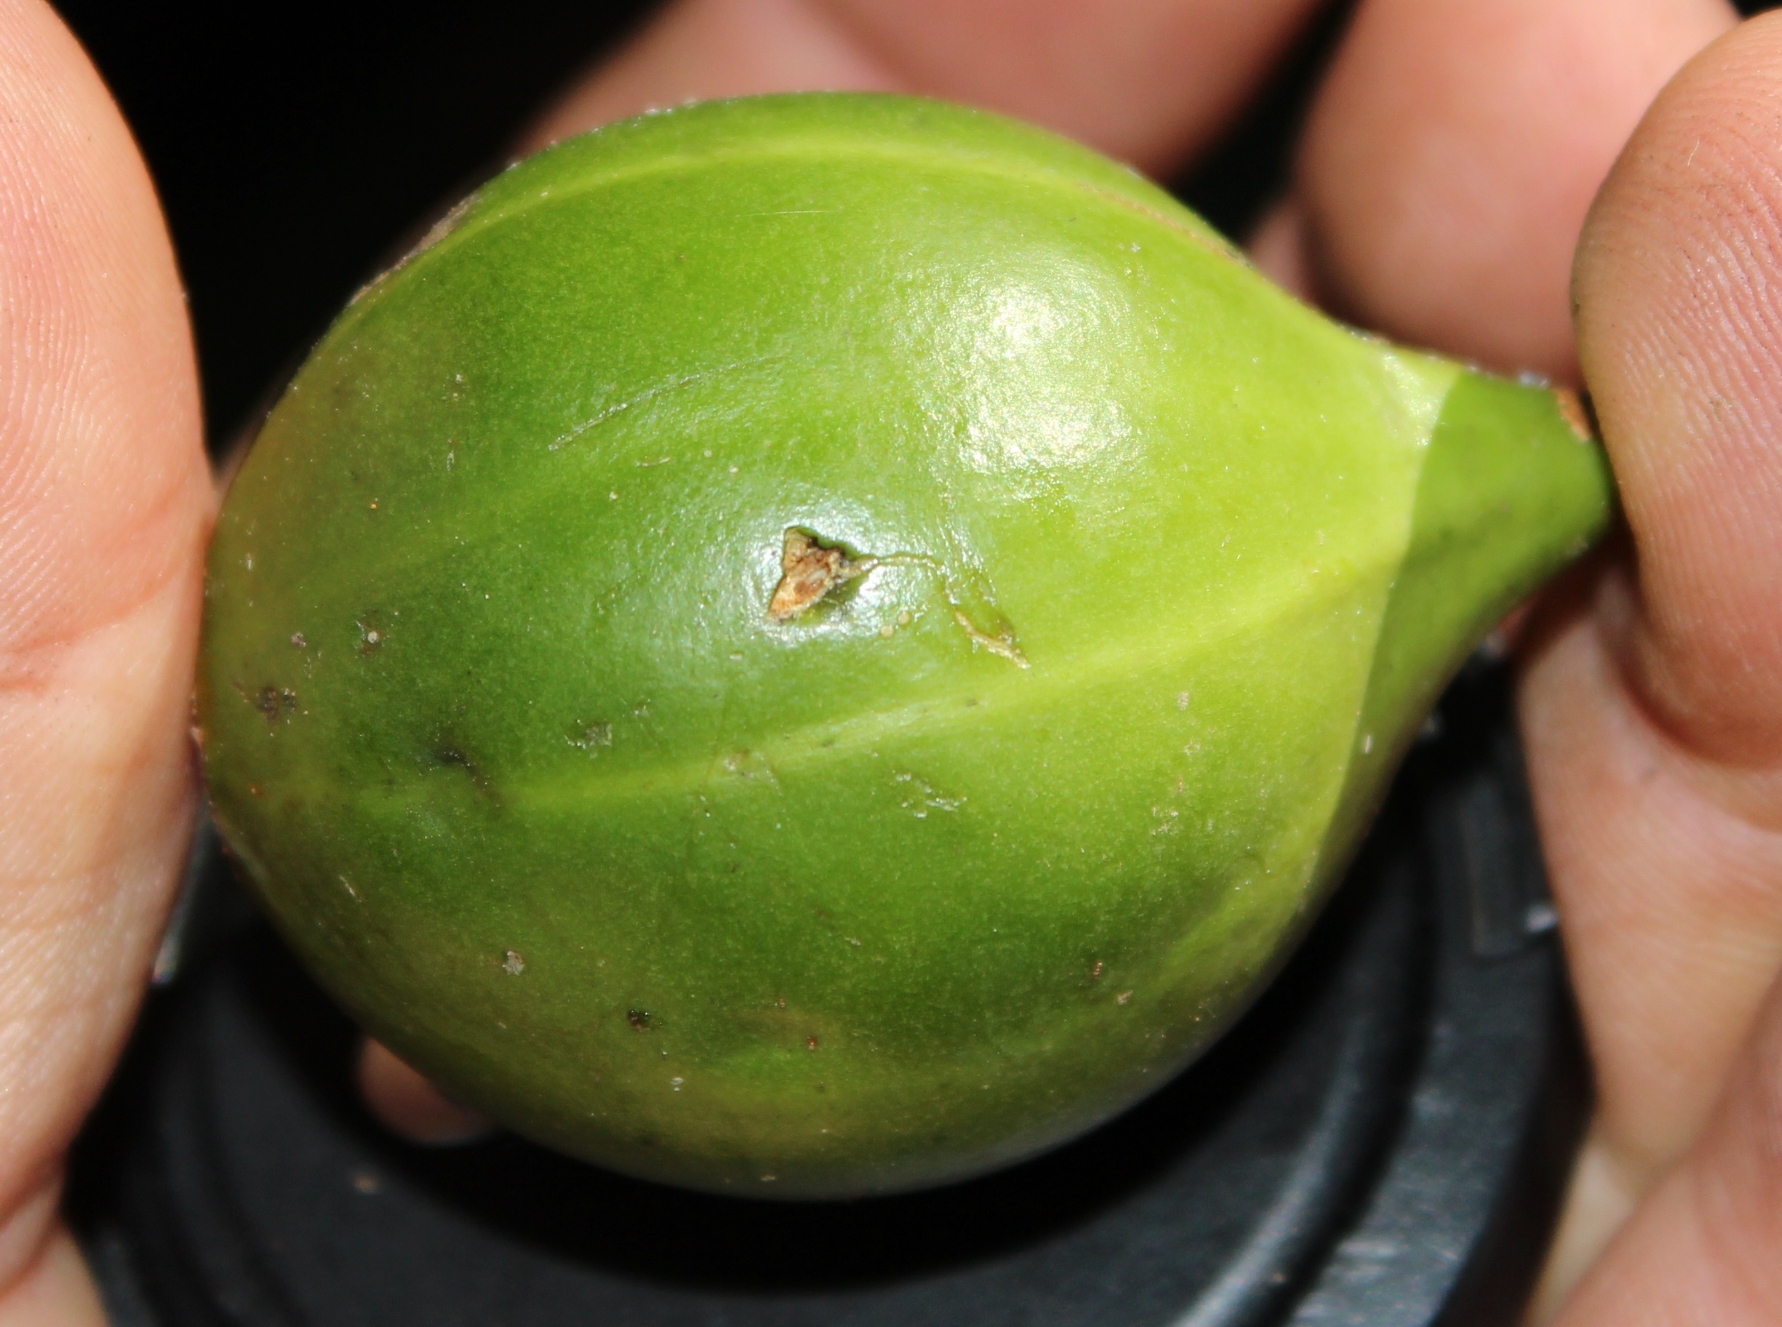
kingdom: Plantae
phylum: Tracheophyta
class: Magnoliopsida
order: Gentianales
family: Rubiaceae
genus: Rothmannia
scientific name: Rothmannia capensis
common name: Cape gardenia
